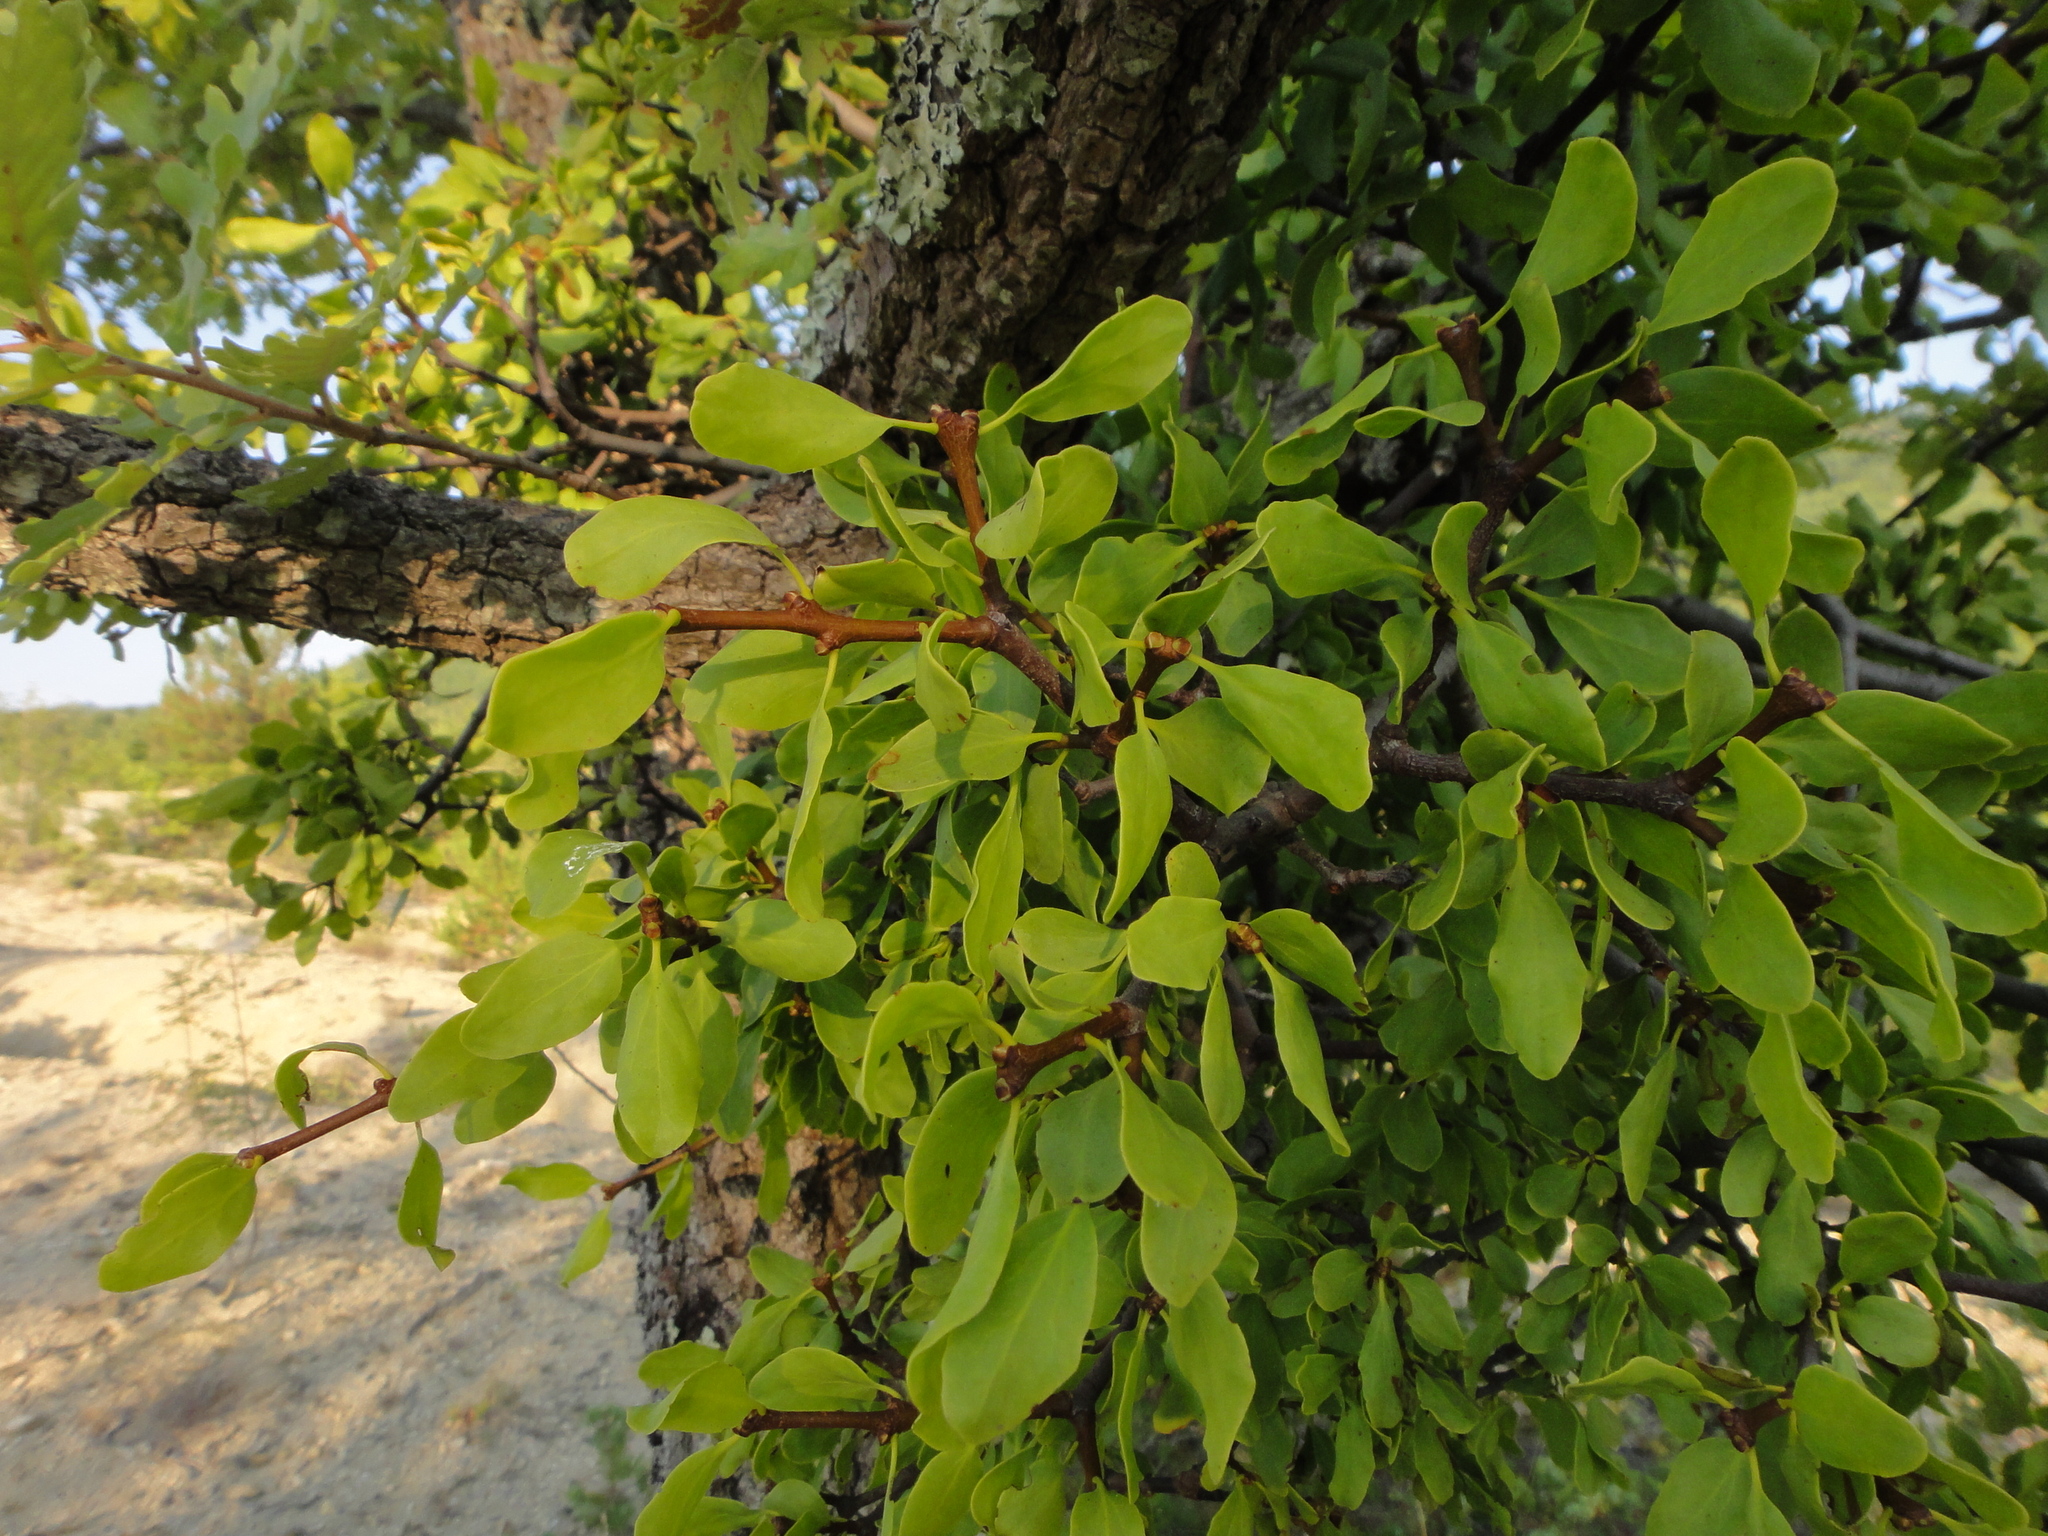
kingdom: Plantae
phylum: Tracheophyta
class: Magnoliopsida
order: Santalales
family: Loranthaceae
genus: Loranthus
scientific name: Loranthus europaeus
